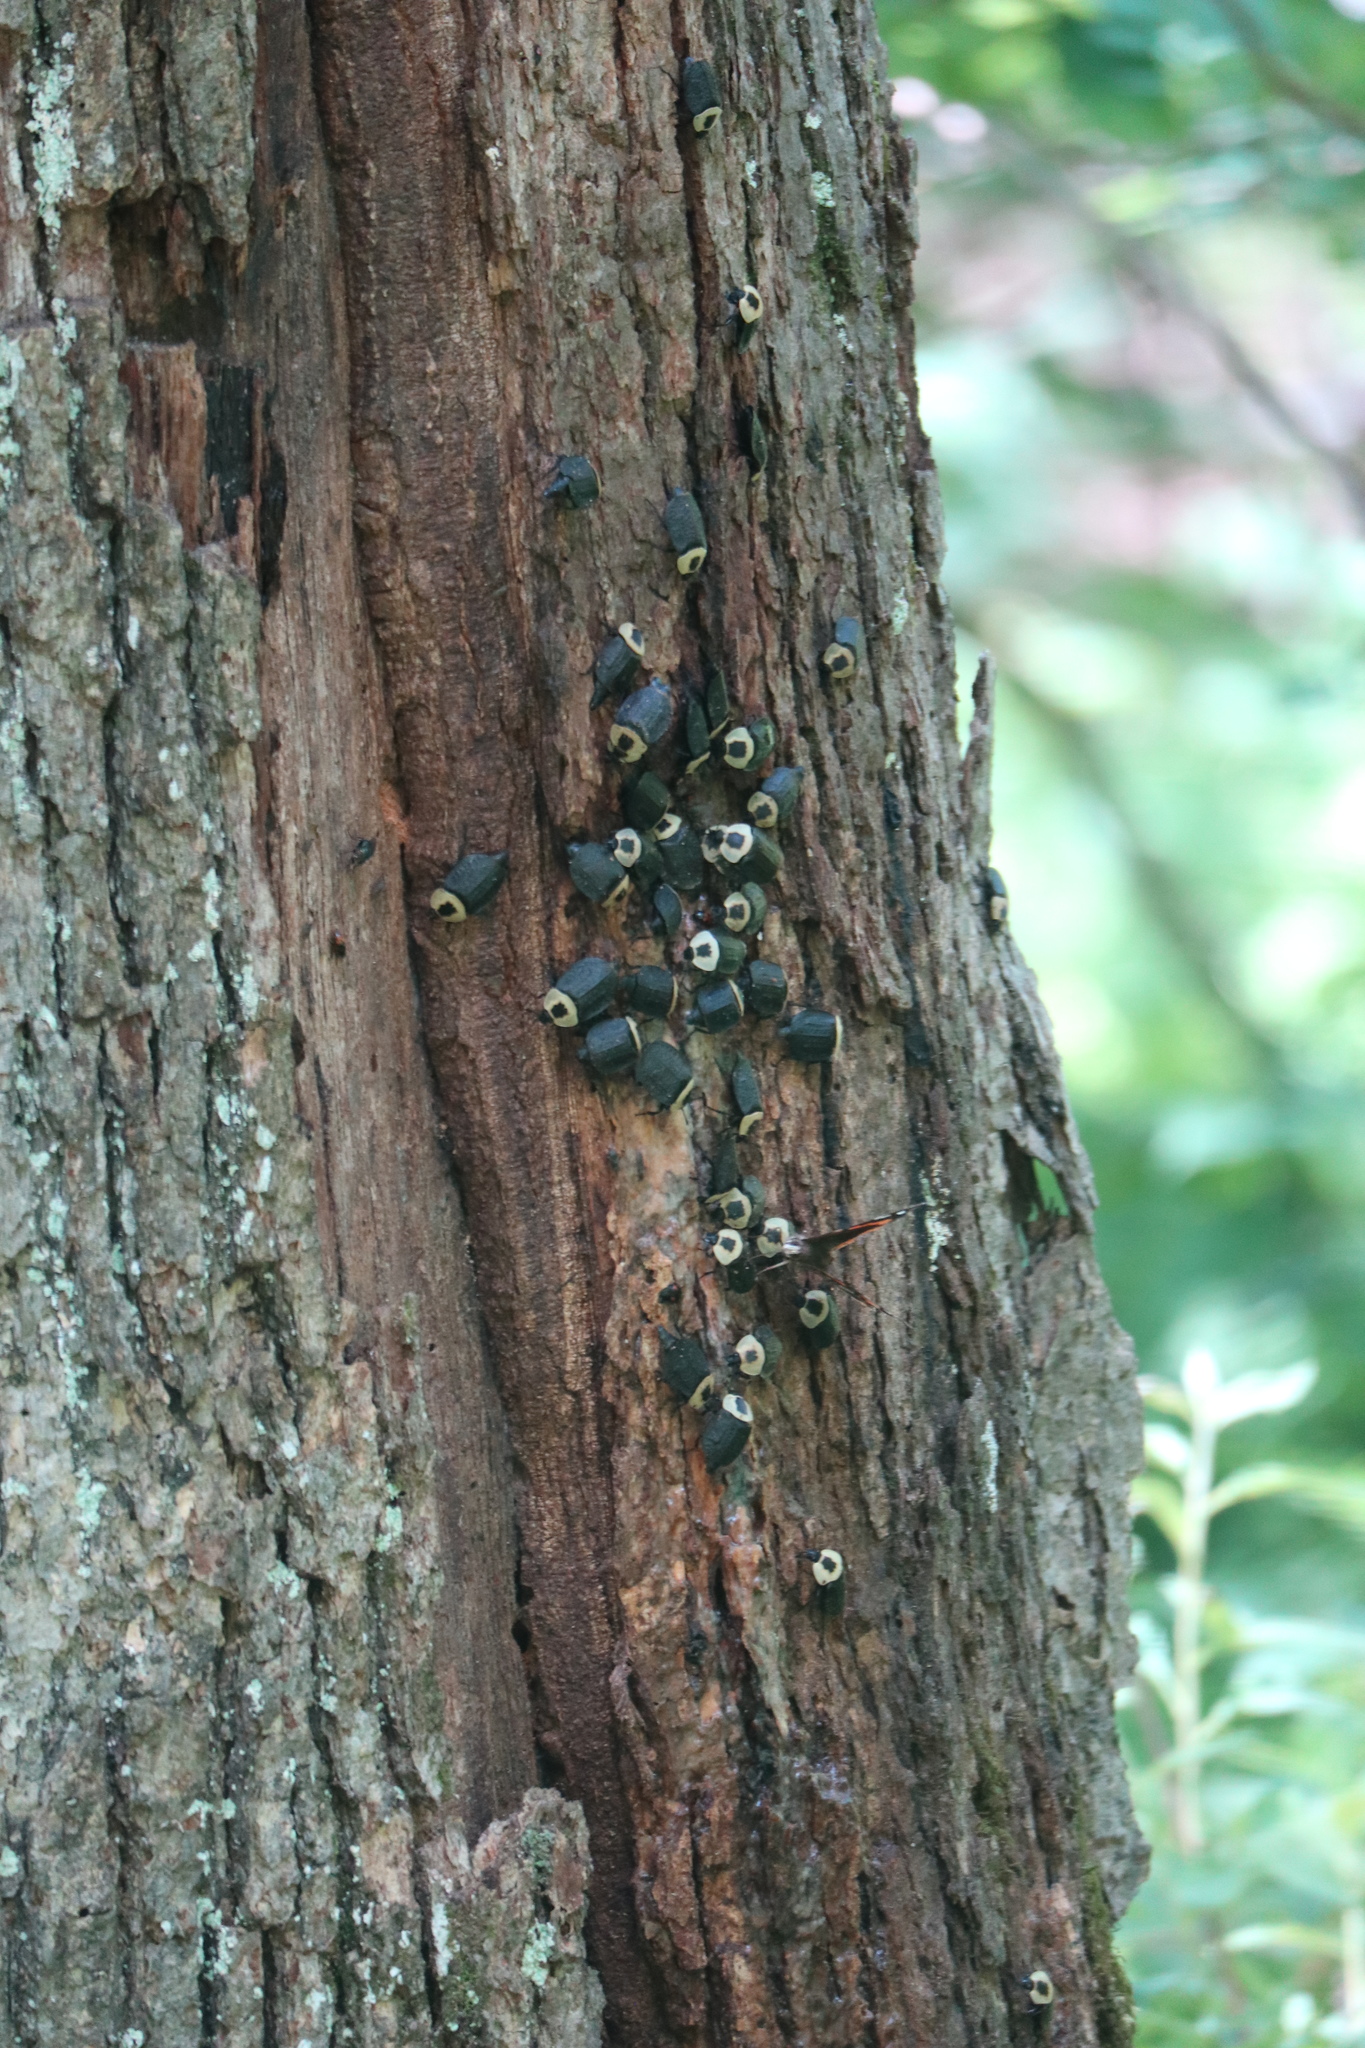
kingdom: Animalia
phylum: Arthropoda
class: Insecta
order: Coleoptera
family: Staphylinidae
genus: Necrophila
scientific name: Necrophila americana
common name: American carrion beetle
